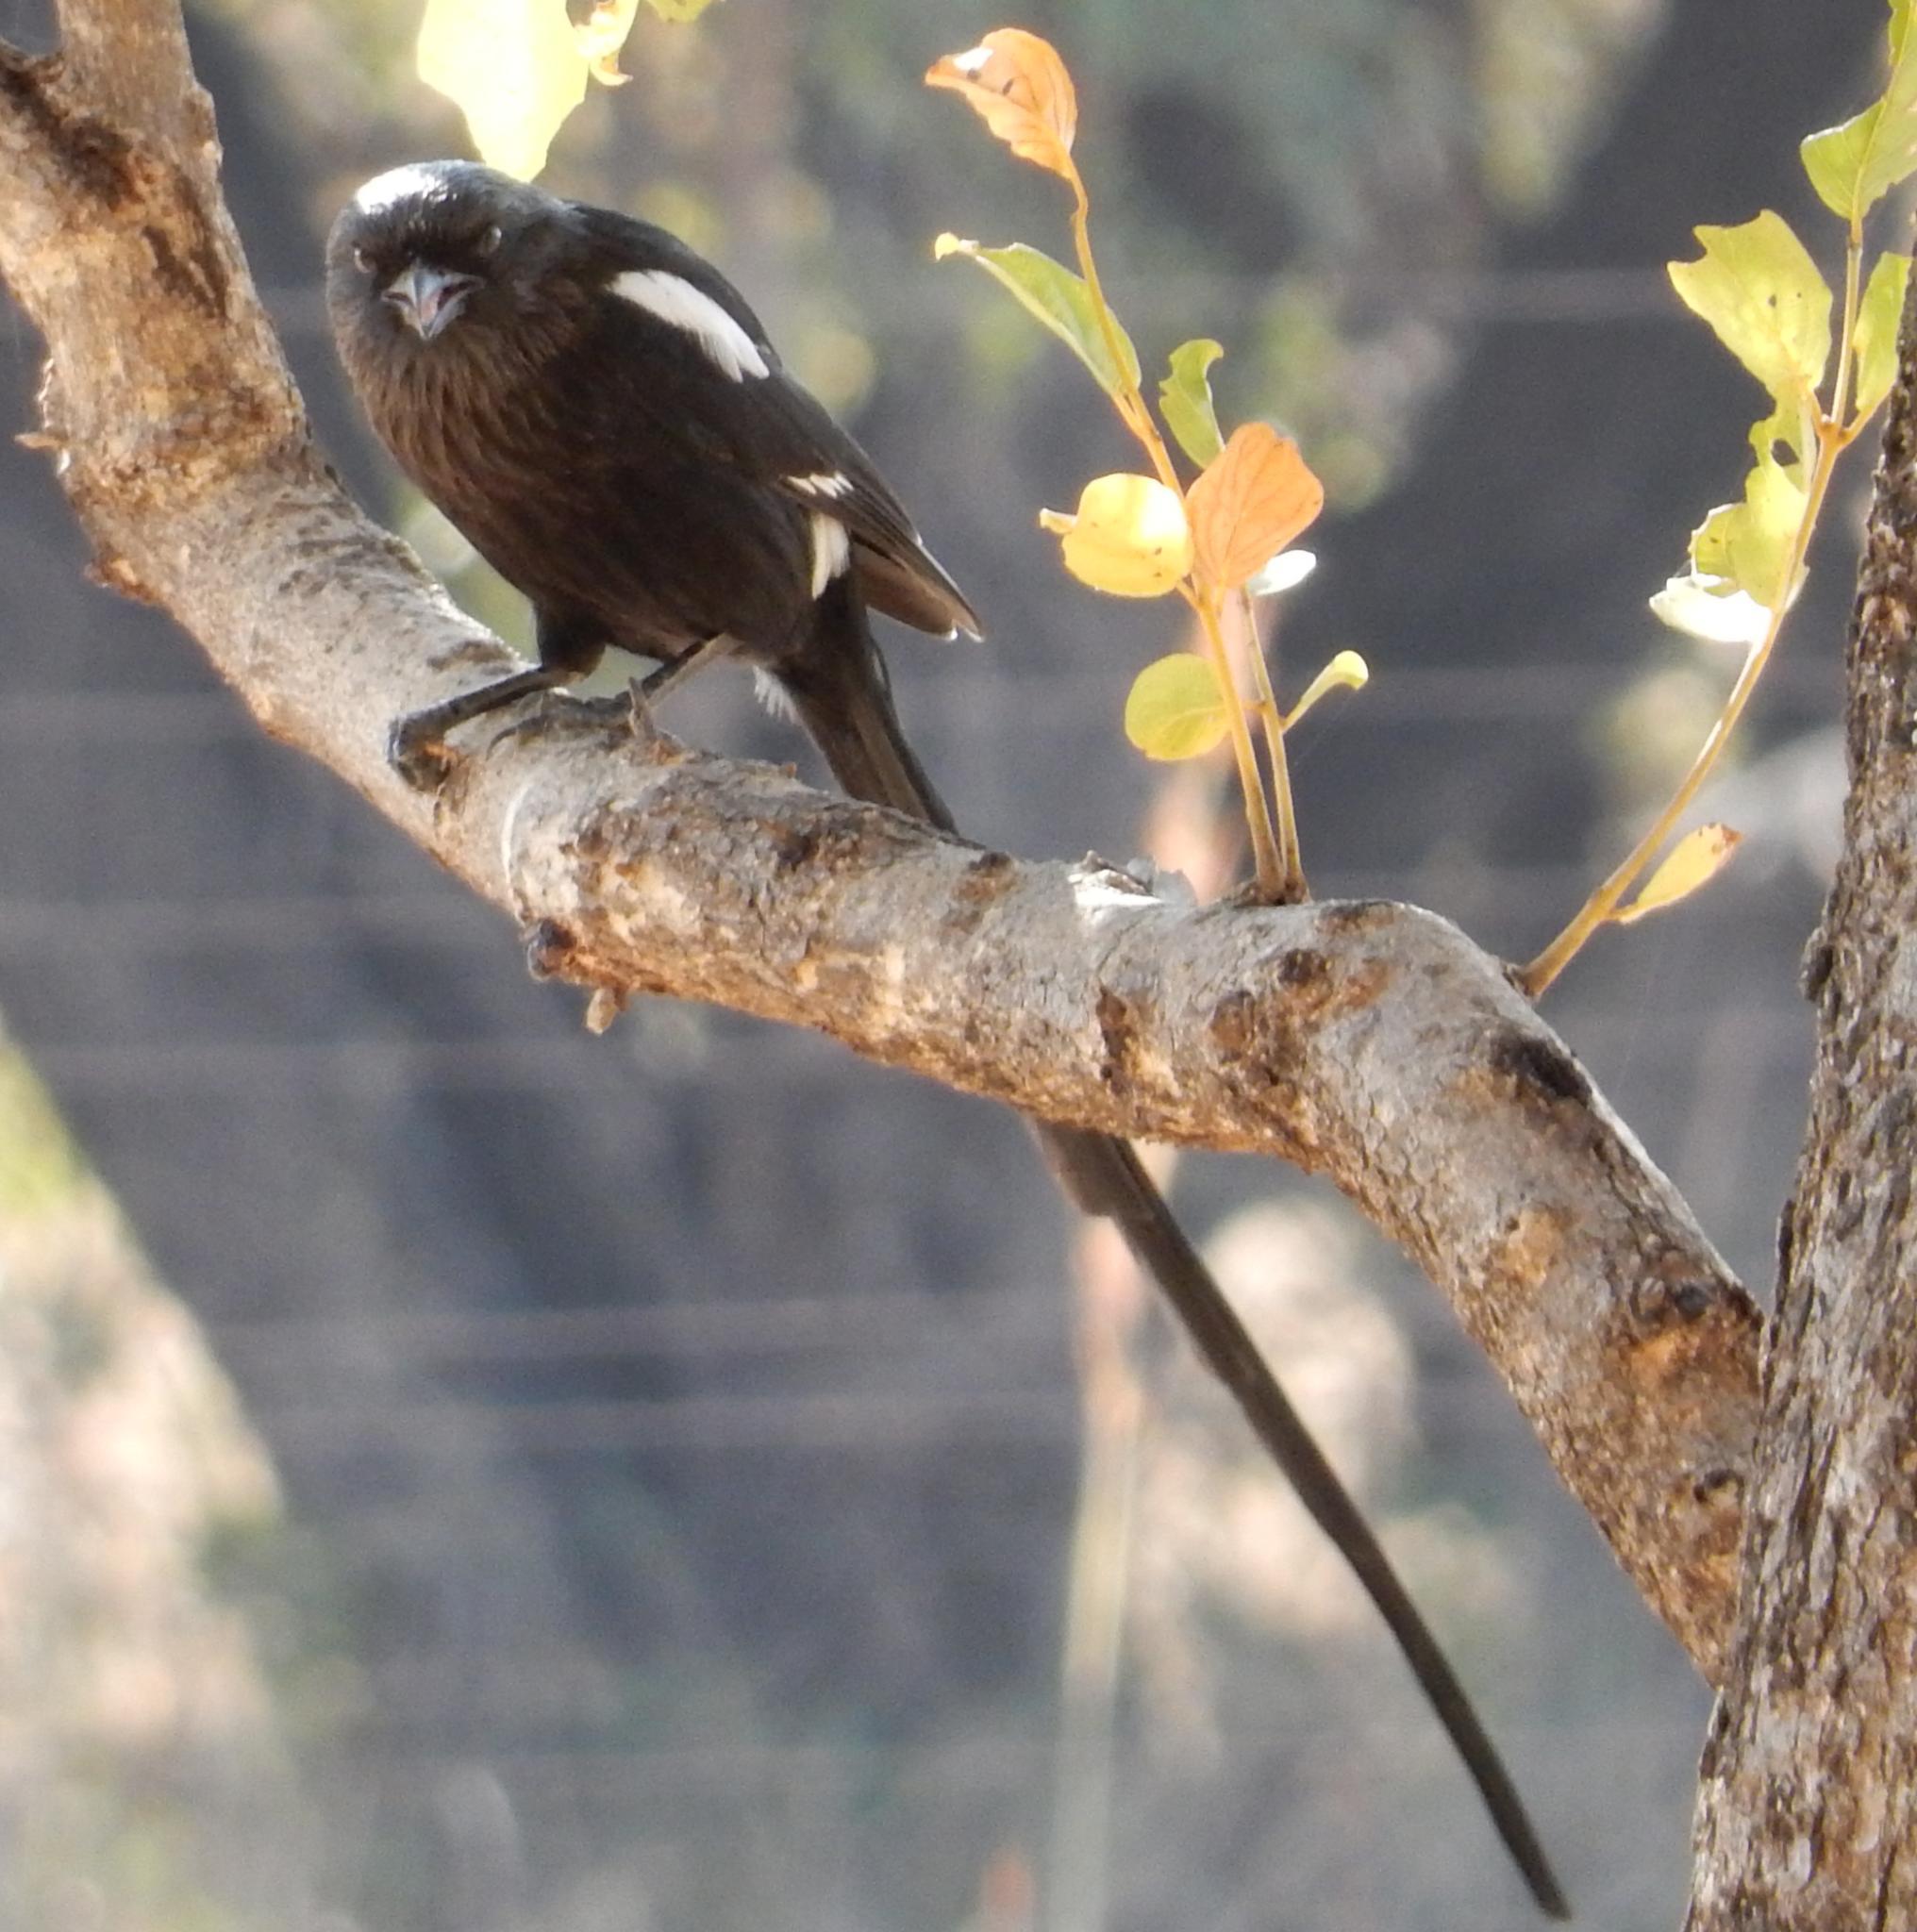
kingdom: Animalia
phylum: Chordata
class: Aves
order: Passeriformes
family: Laniidae
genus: Urolestes
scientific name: Urolestes melanoleucus
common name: Magpie shrike
